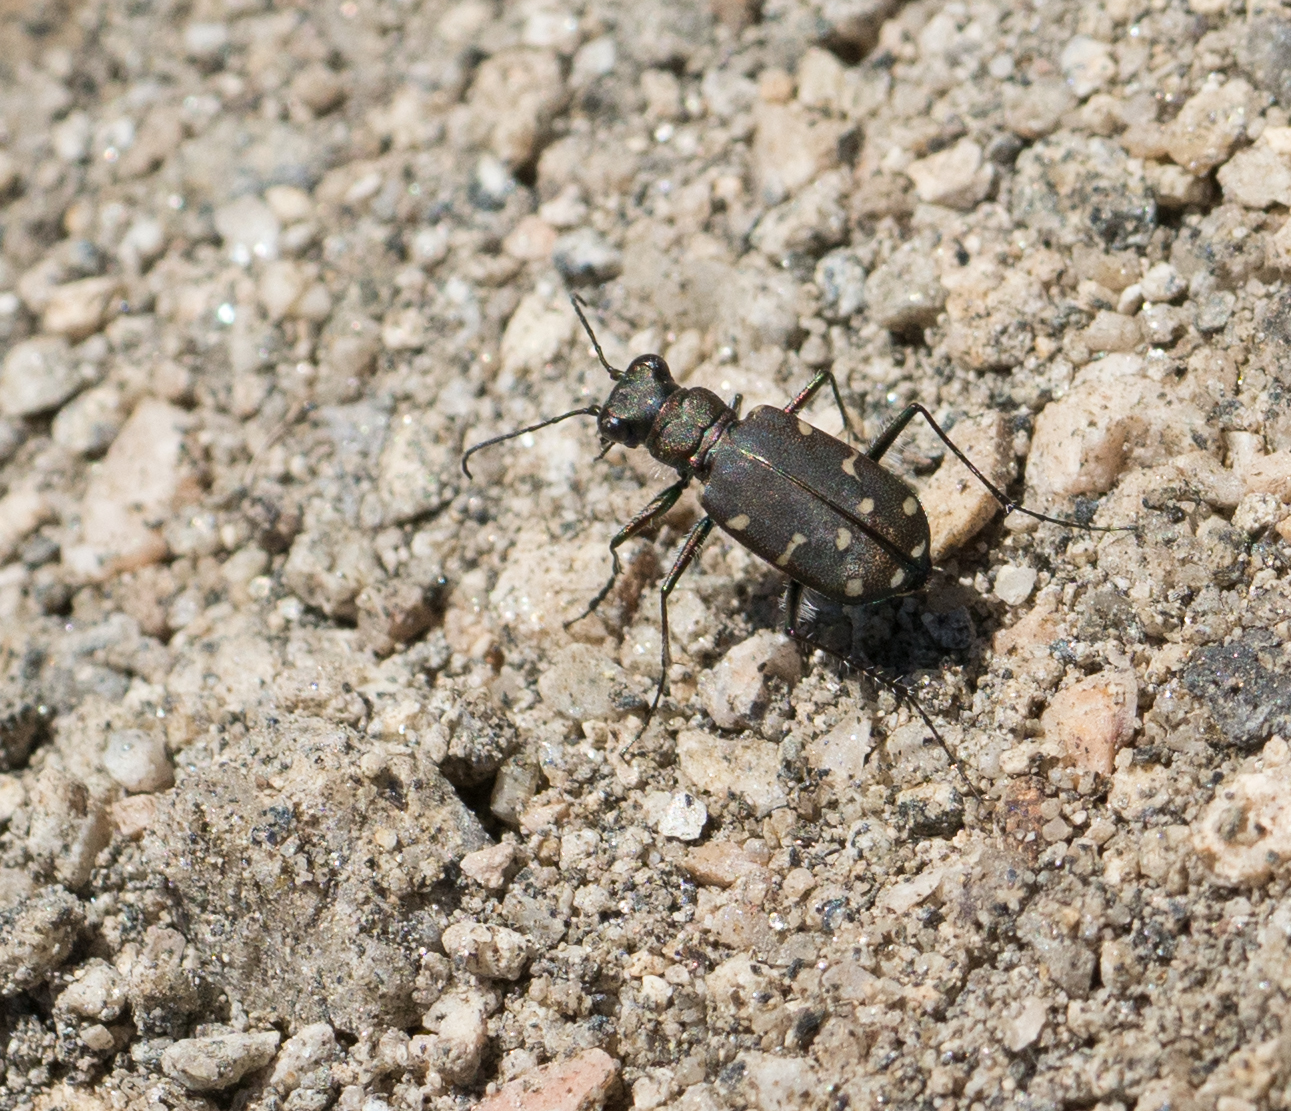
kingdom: Animalia
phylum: Arthropoda
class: Insecta
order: Coleoptera
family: Carabidae
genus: Cicindela
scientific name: Cicindela oregona
